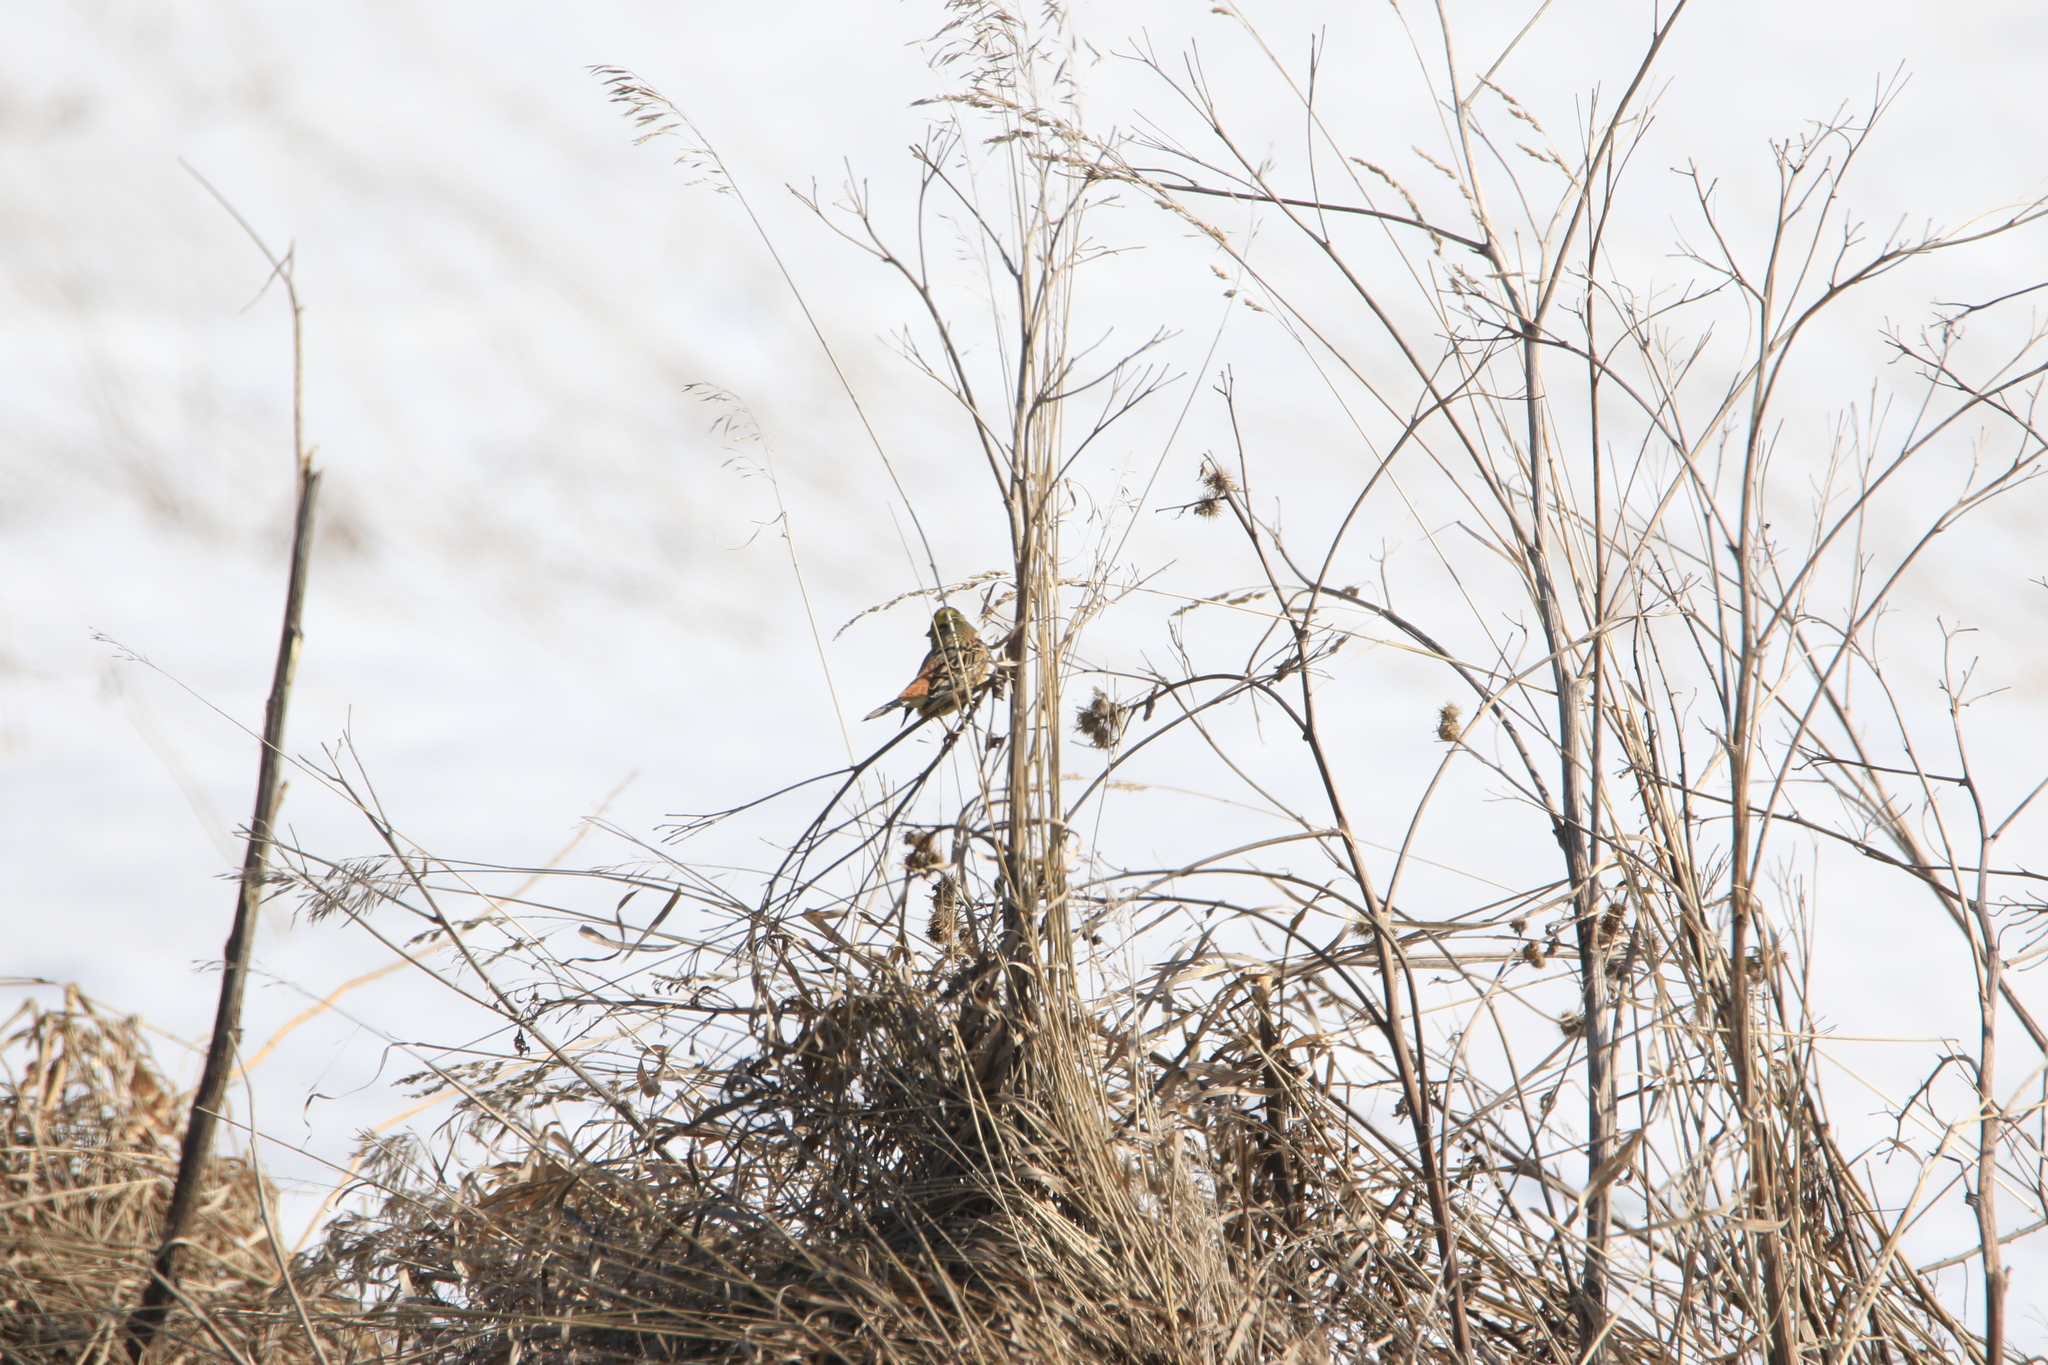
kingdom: Animalia
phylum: Chordata
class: Aves
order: Passeriformes
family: Emberizidae
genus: Emberiza
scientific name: Emberiza citrinella
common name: Yellowhammer
